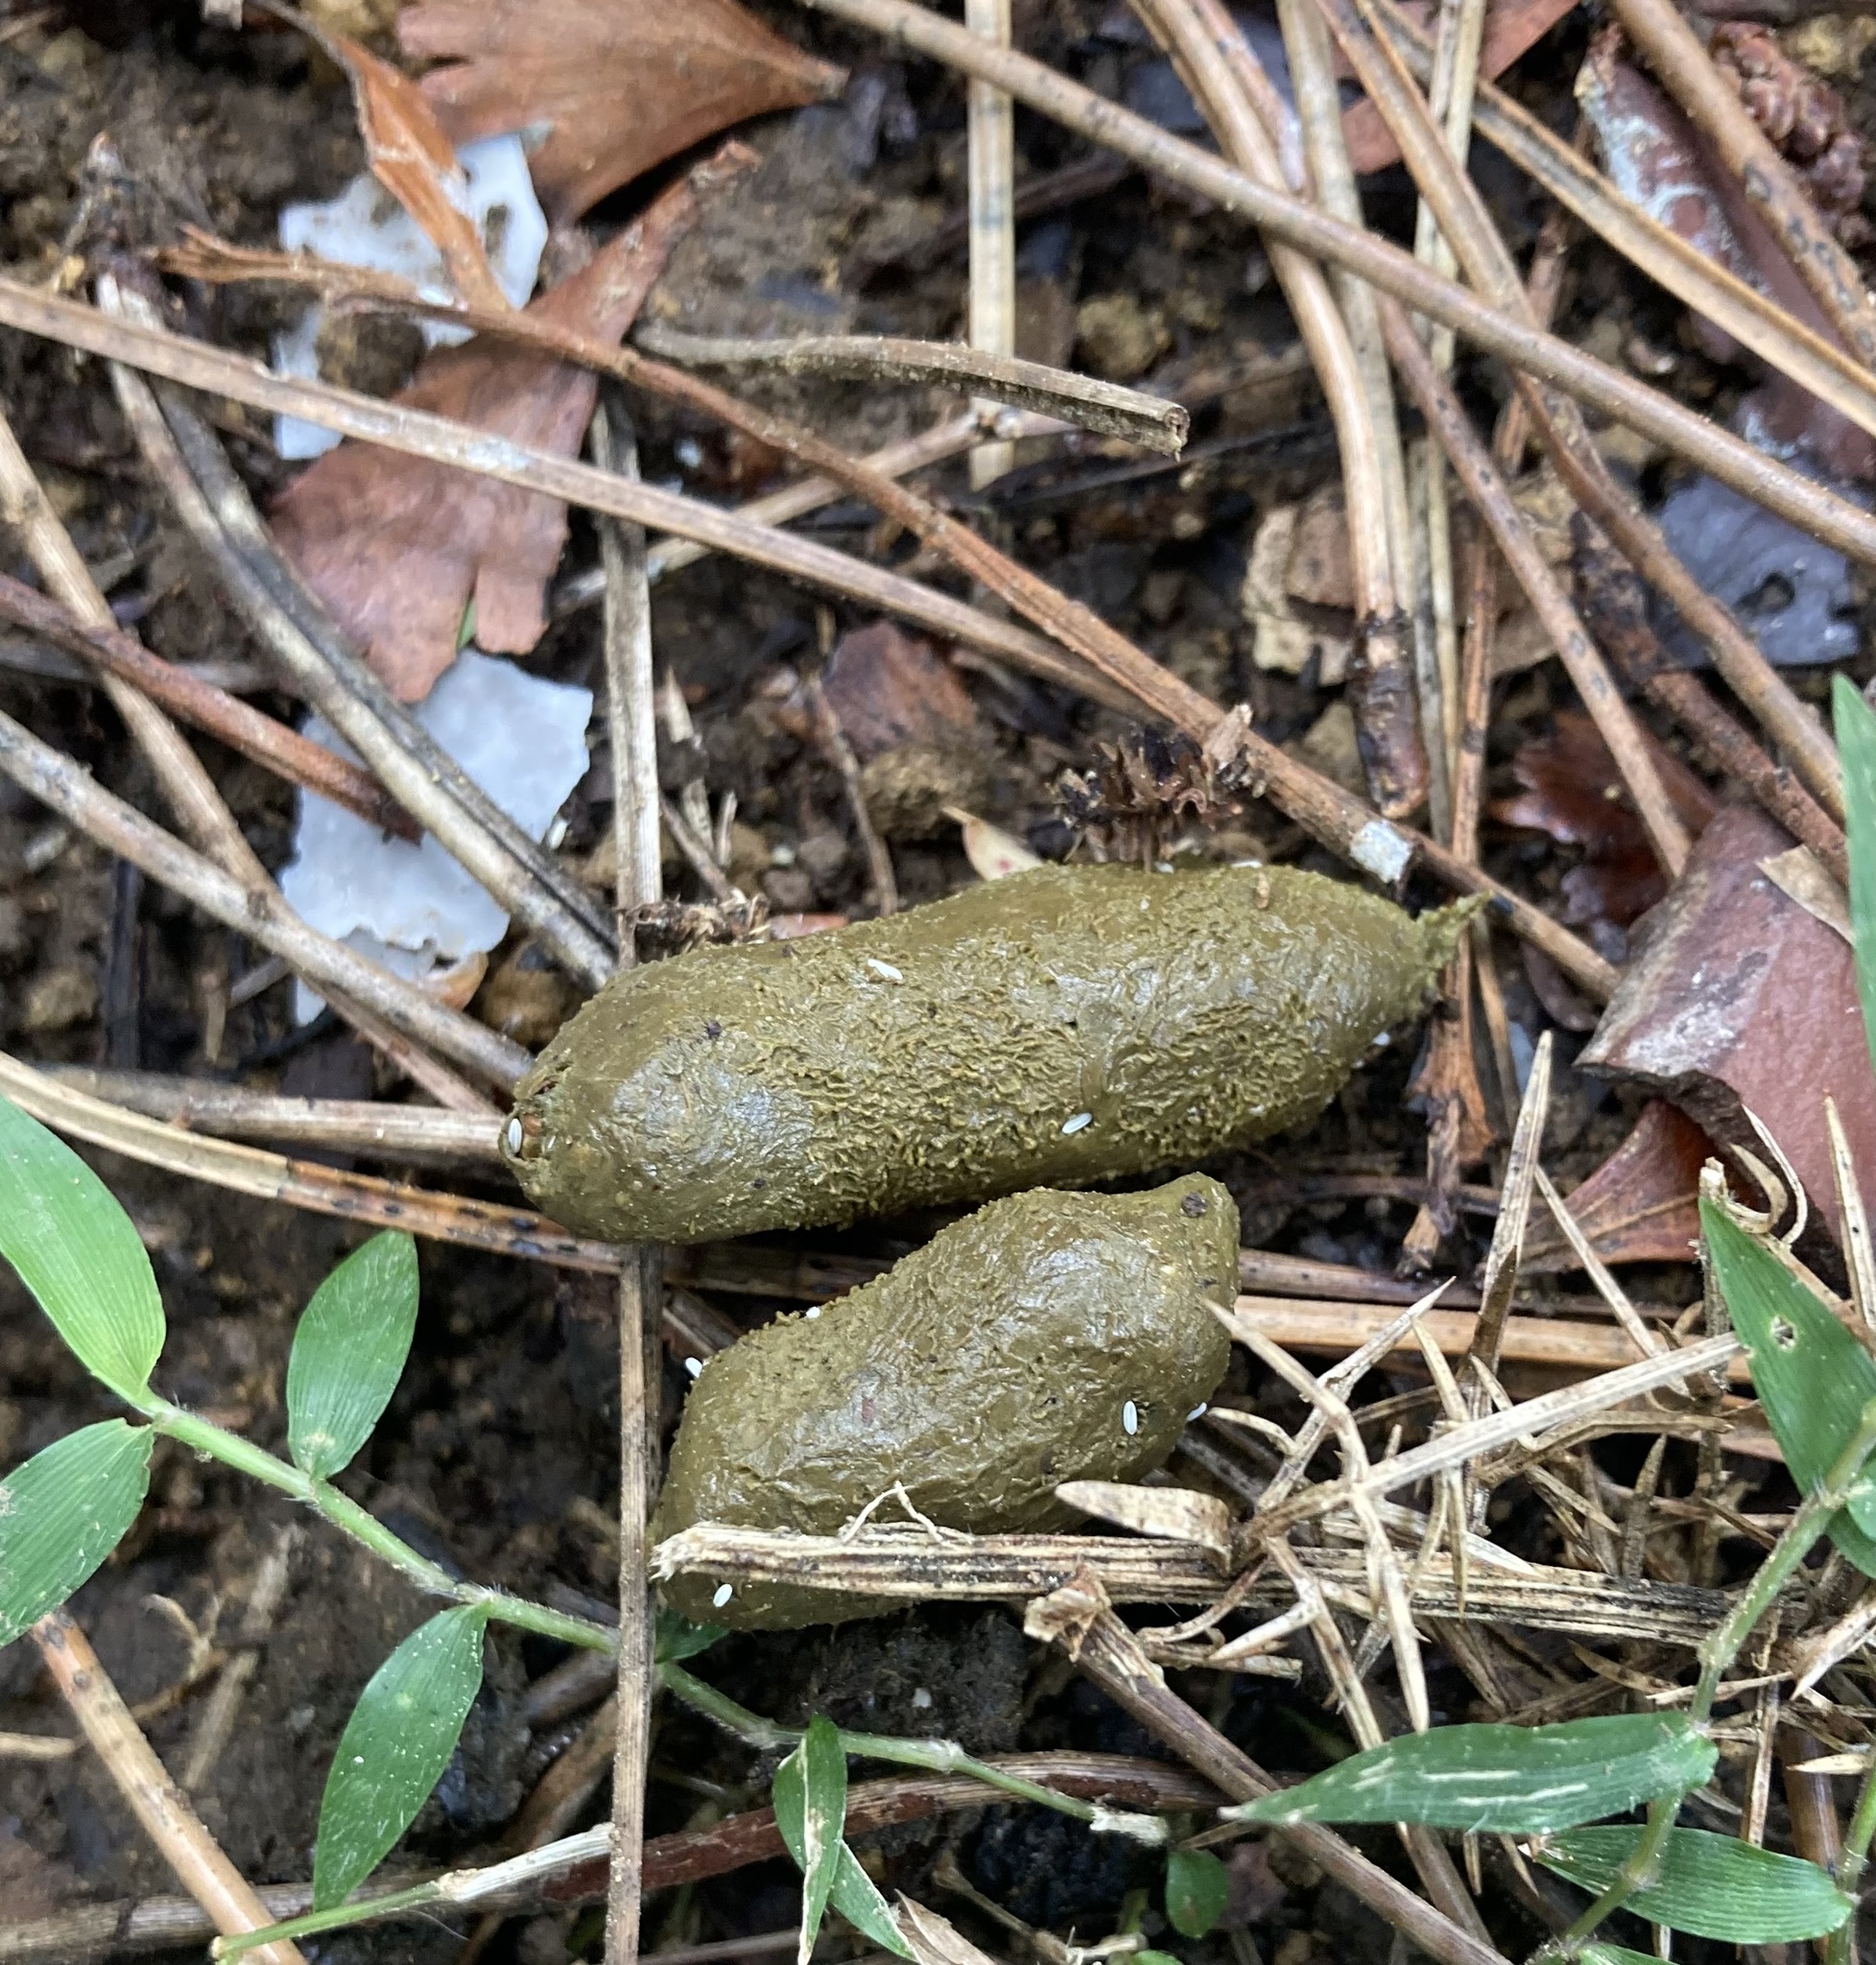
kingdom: Animalia
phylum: Chordata
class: Mammalia
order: Diprotodontia
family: Phalangeridae
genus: Trichosurus
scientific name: Trichosurus vulpecula
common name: Common brushtail
